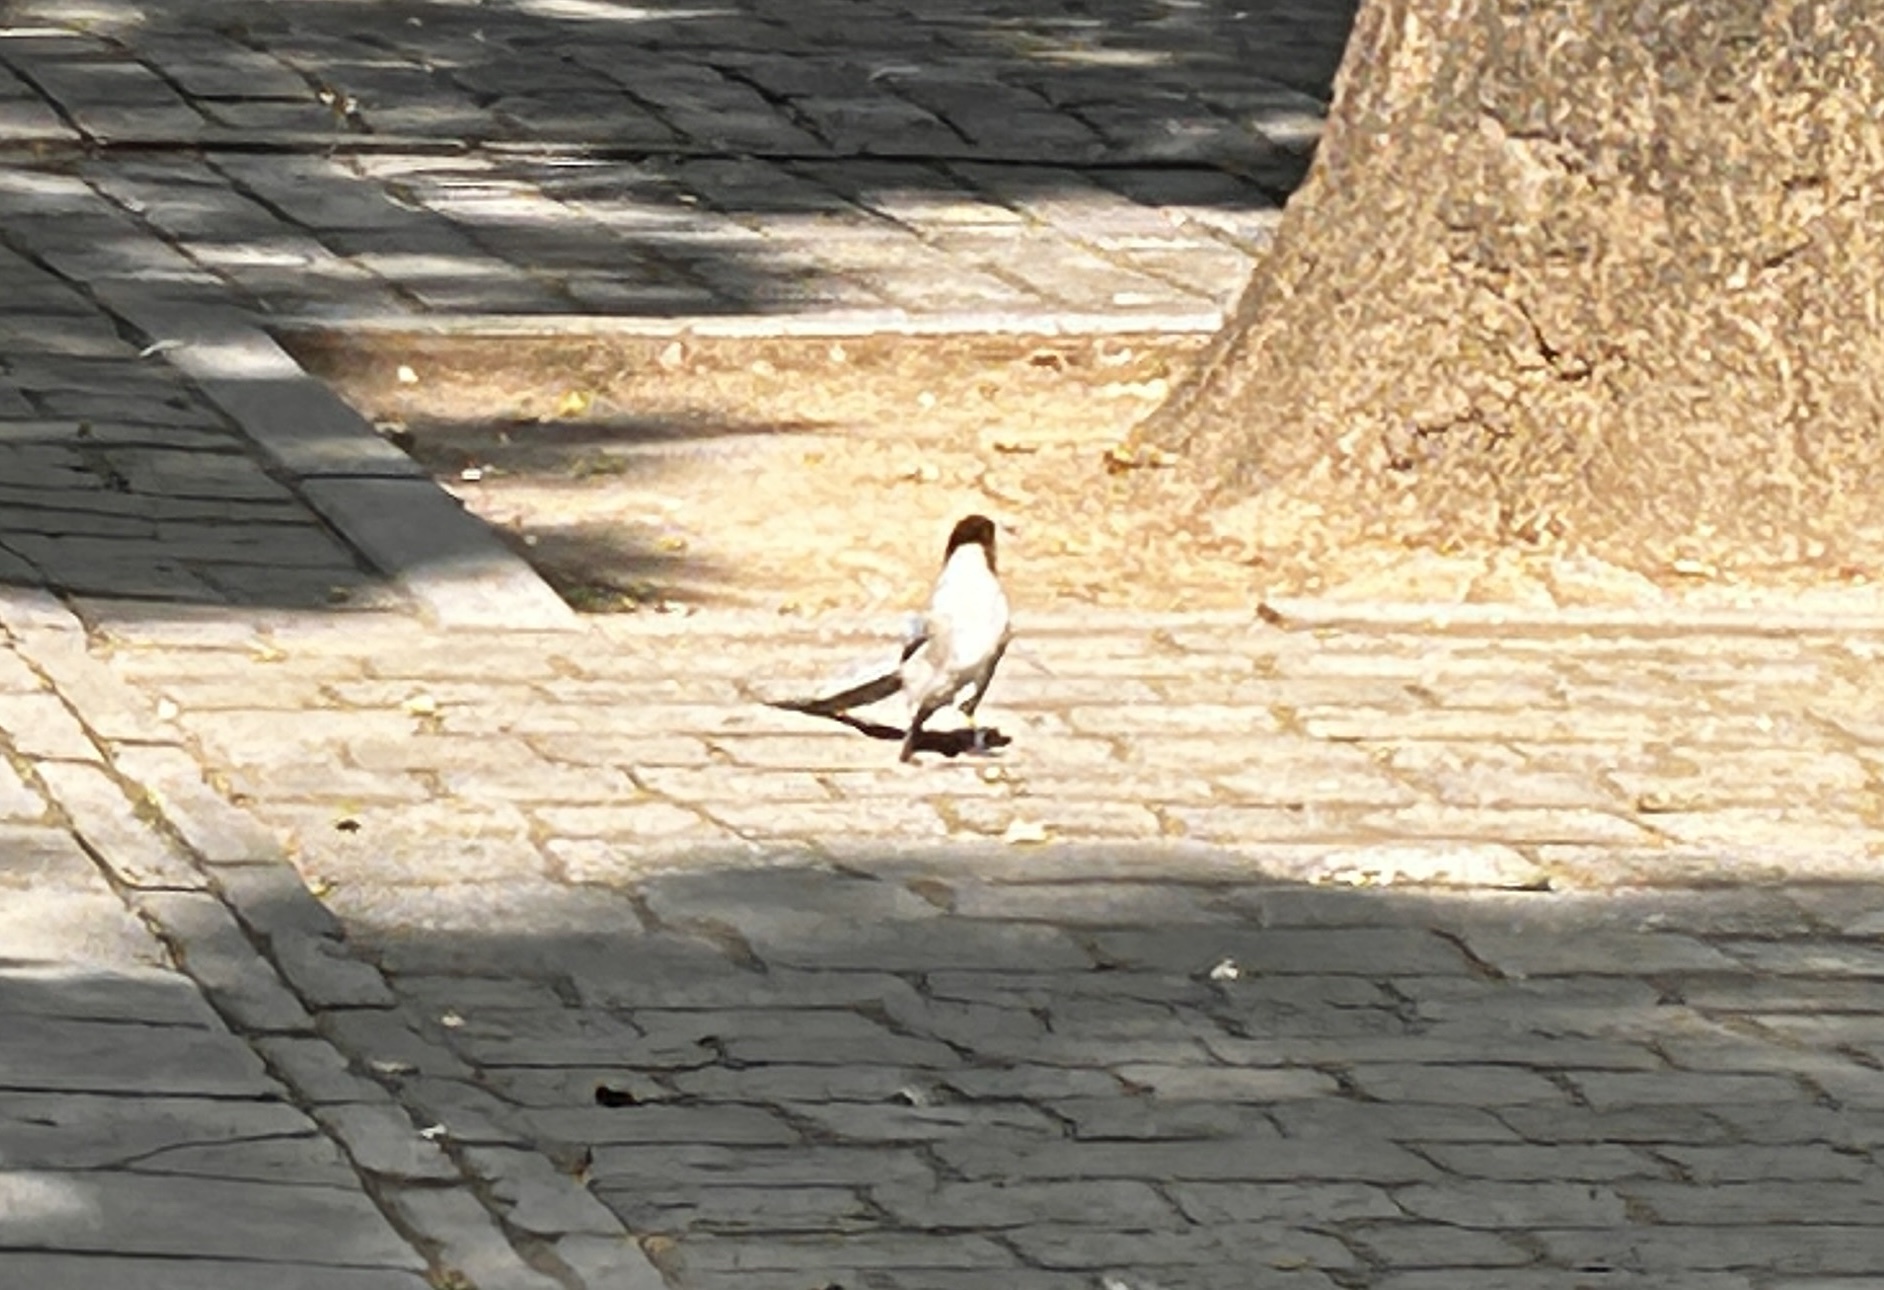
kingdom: Animalia
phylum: Chordata
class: Aves
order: Passeriformes
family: Corvidae
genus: Cyanopica
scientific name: Cyanopica cyanus
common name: Azure-winged magpie
